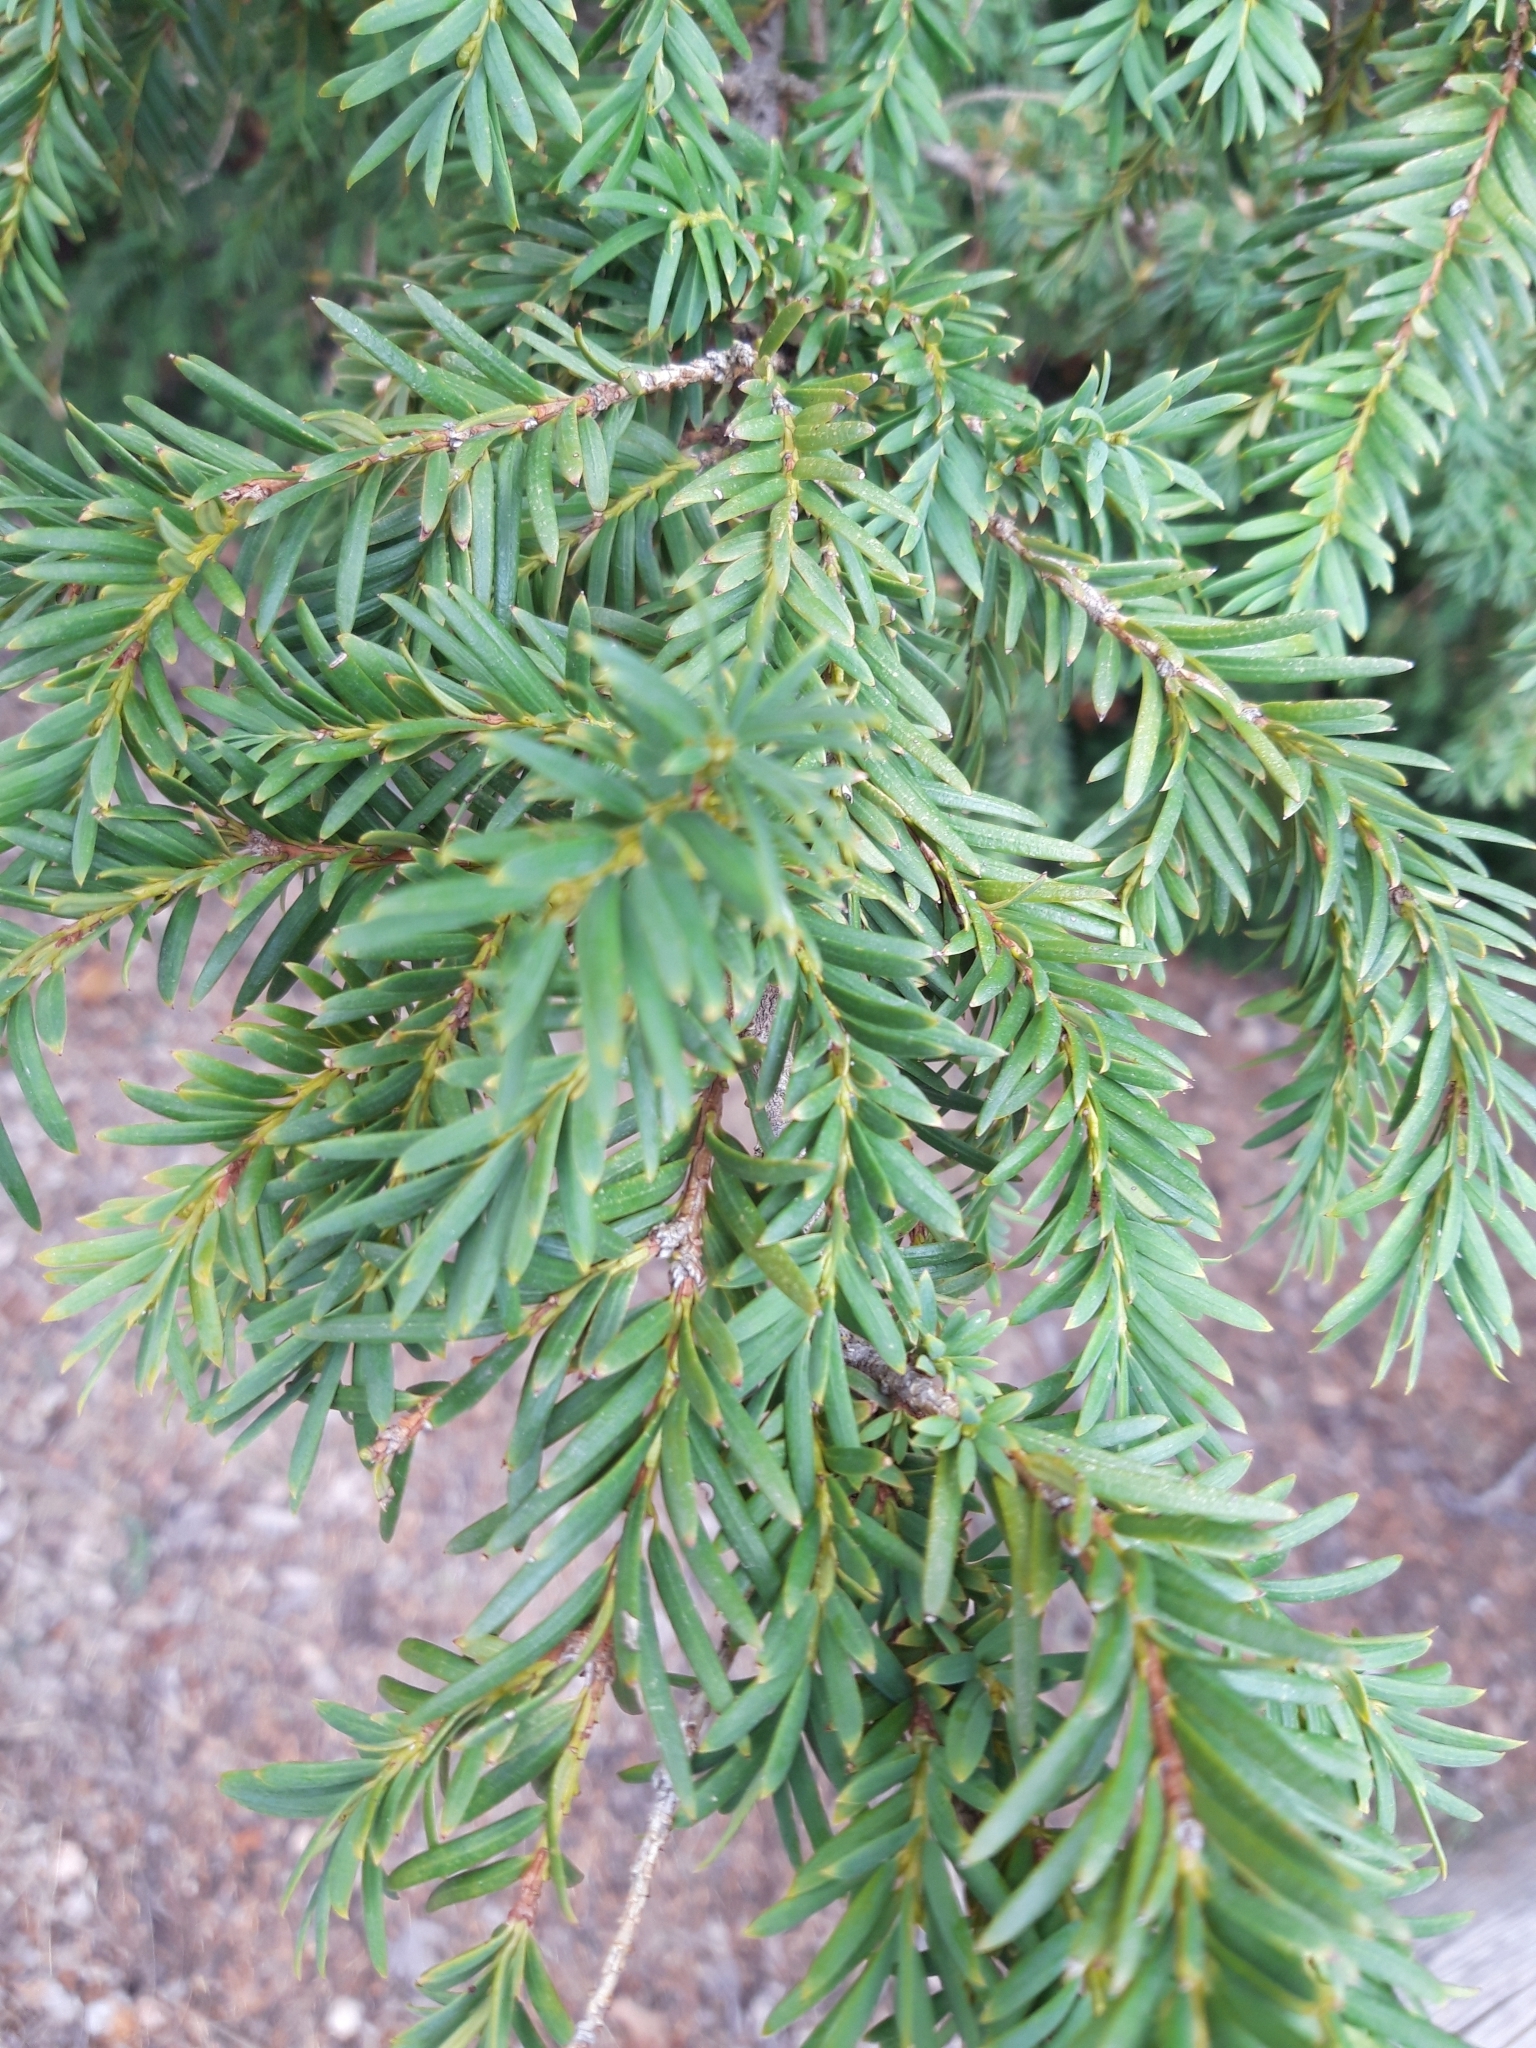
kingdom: Plantae
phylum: Tracheophyta
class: Pinopsida
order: Pinales
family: Taxaceae
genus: Taxus
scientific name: Taxus baccata
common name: Yew
